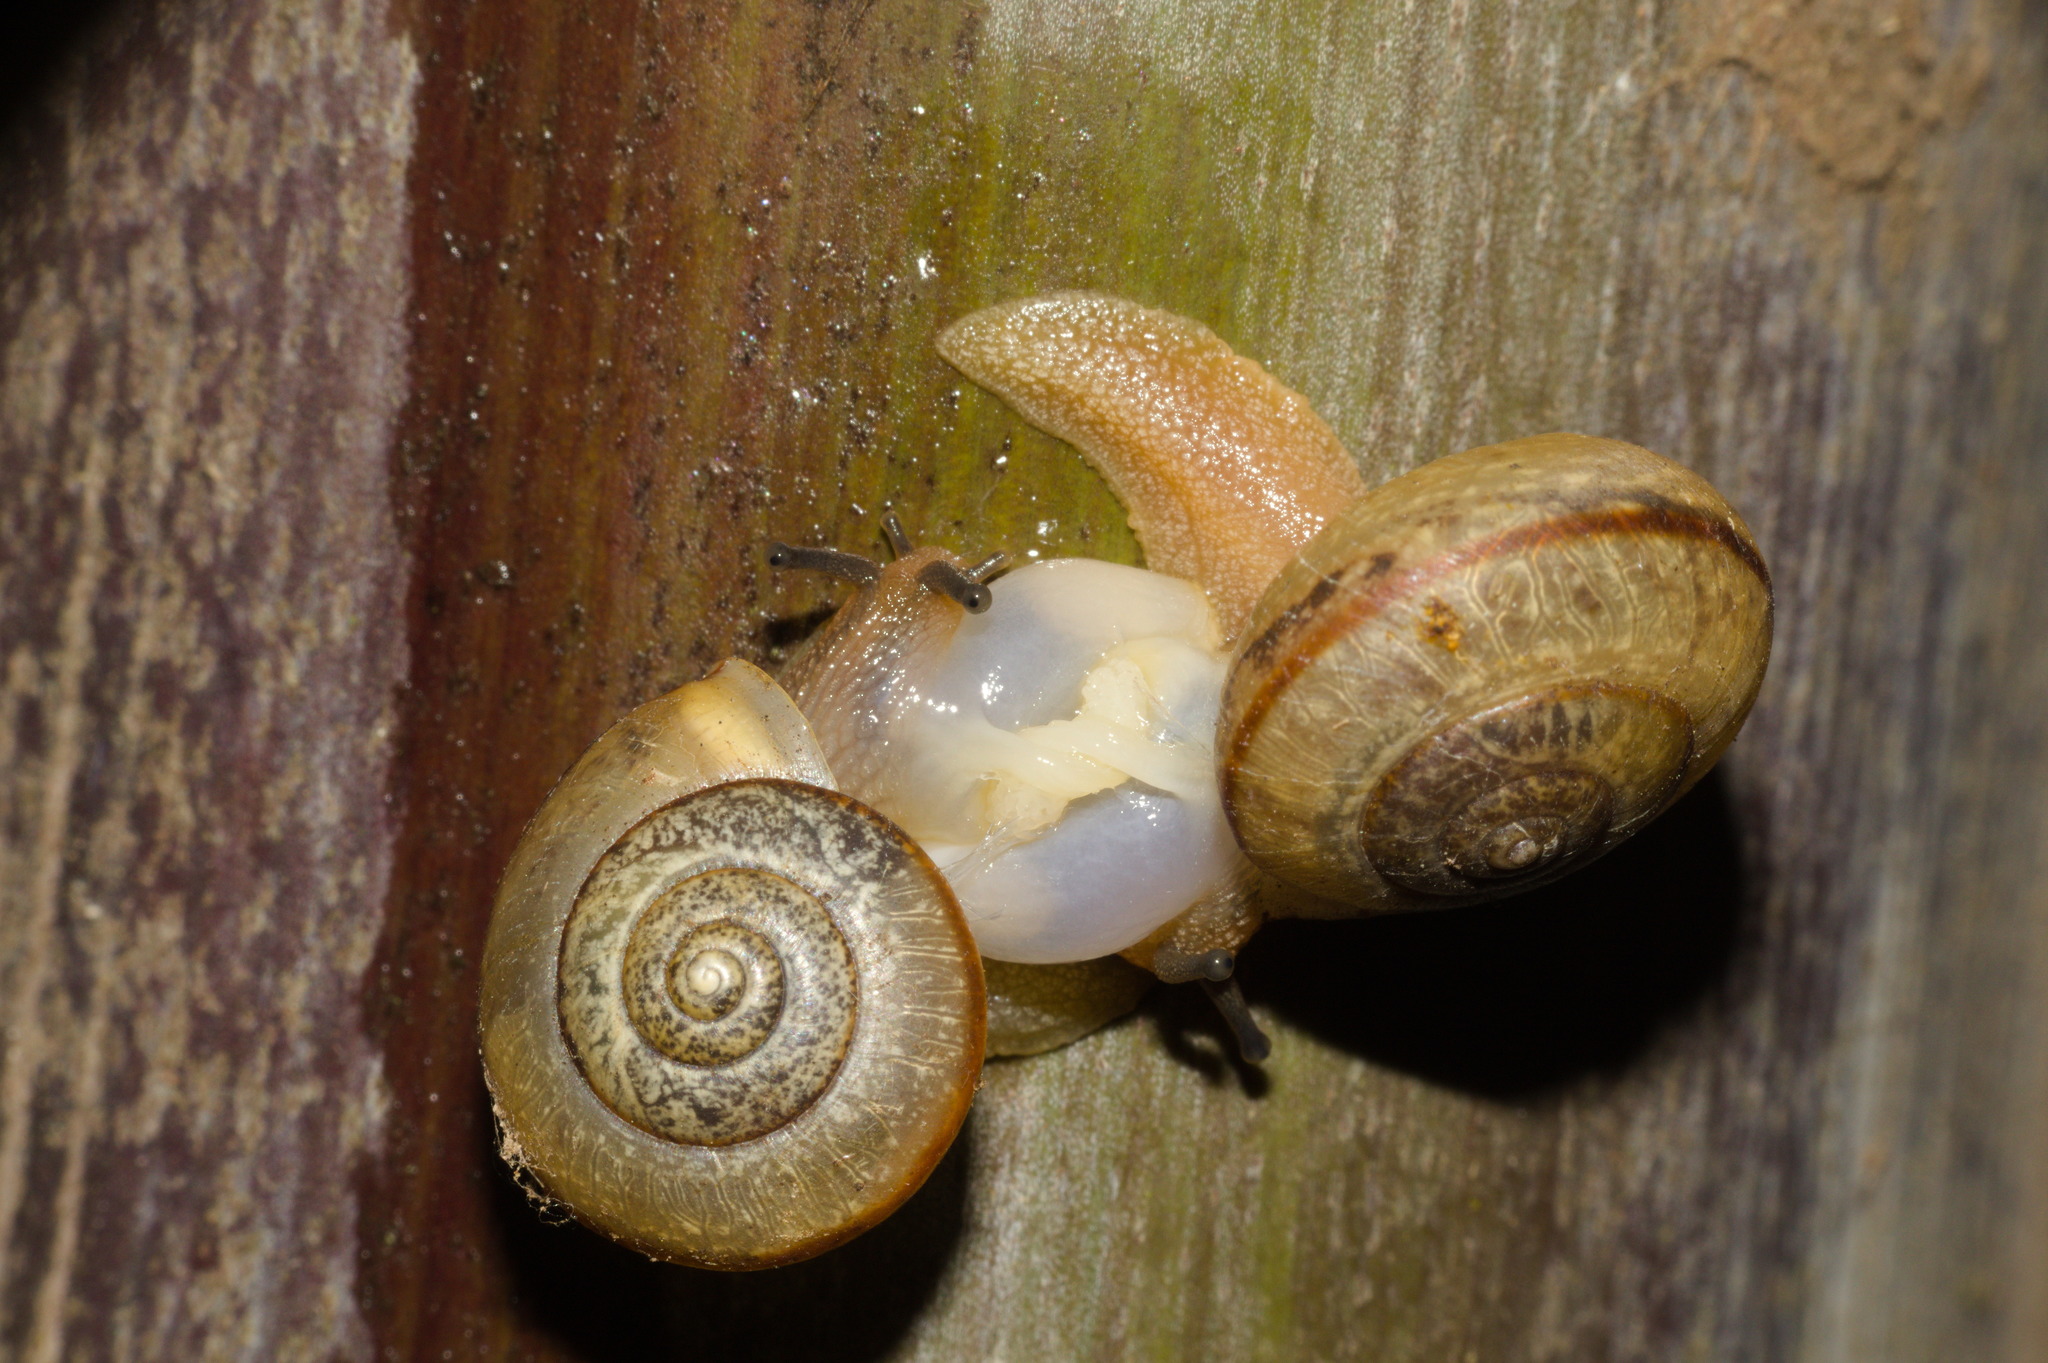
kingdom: Animalia
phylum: Mollusca
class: Gastropoda
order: Stylommatophora
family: Camaenidae
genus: Bradybaena
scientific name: Bradybaena similaris
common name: Asian trampsnail
